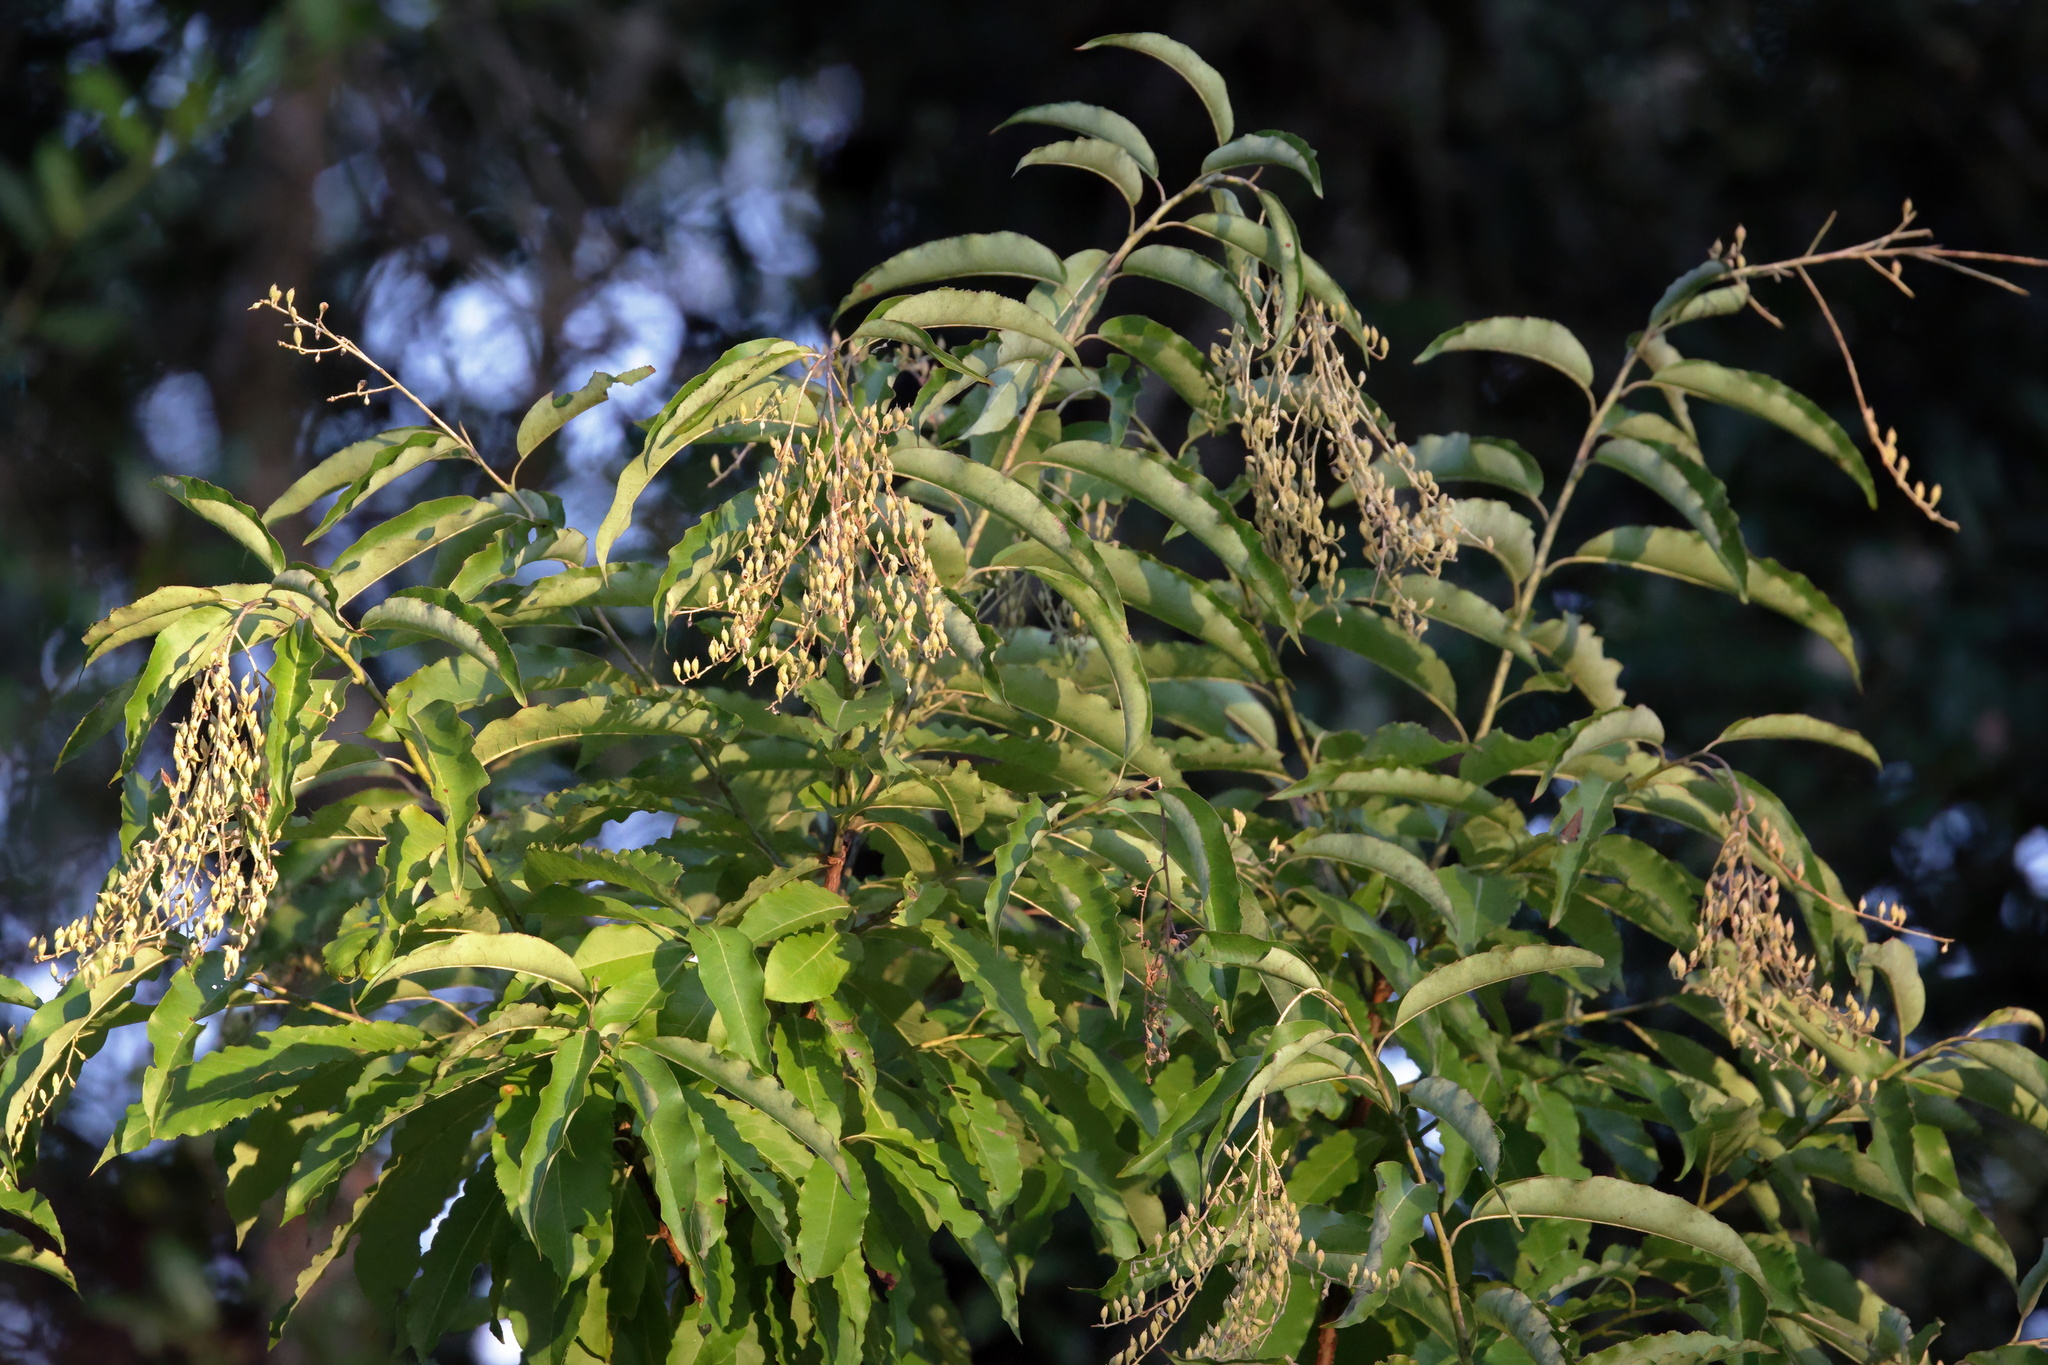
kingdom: Plantae
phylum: Tracheophyta
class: Magnoliopsida
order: Ericales
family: Ericaceae
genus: Oxydendrum
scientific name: Oxydendrum arboreum
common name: Sourwood
